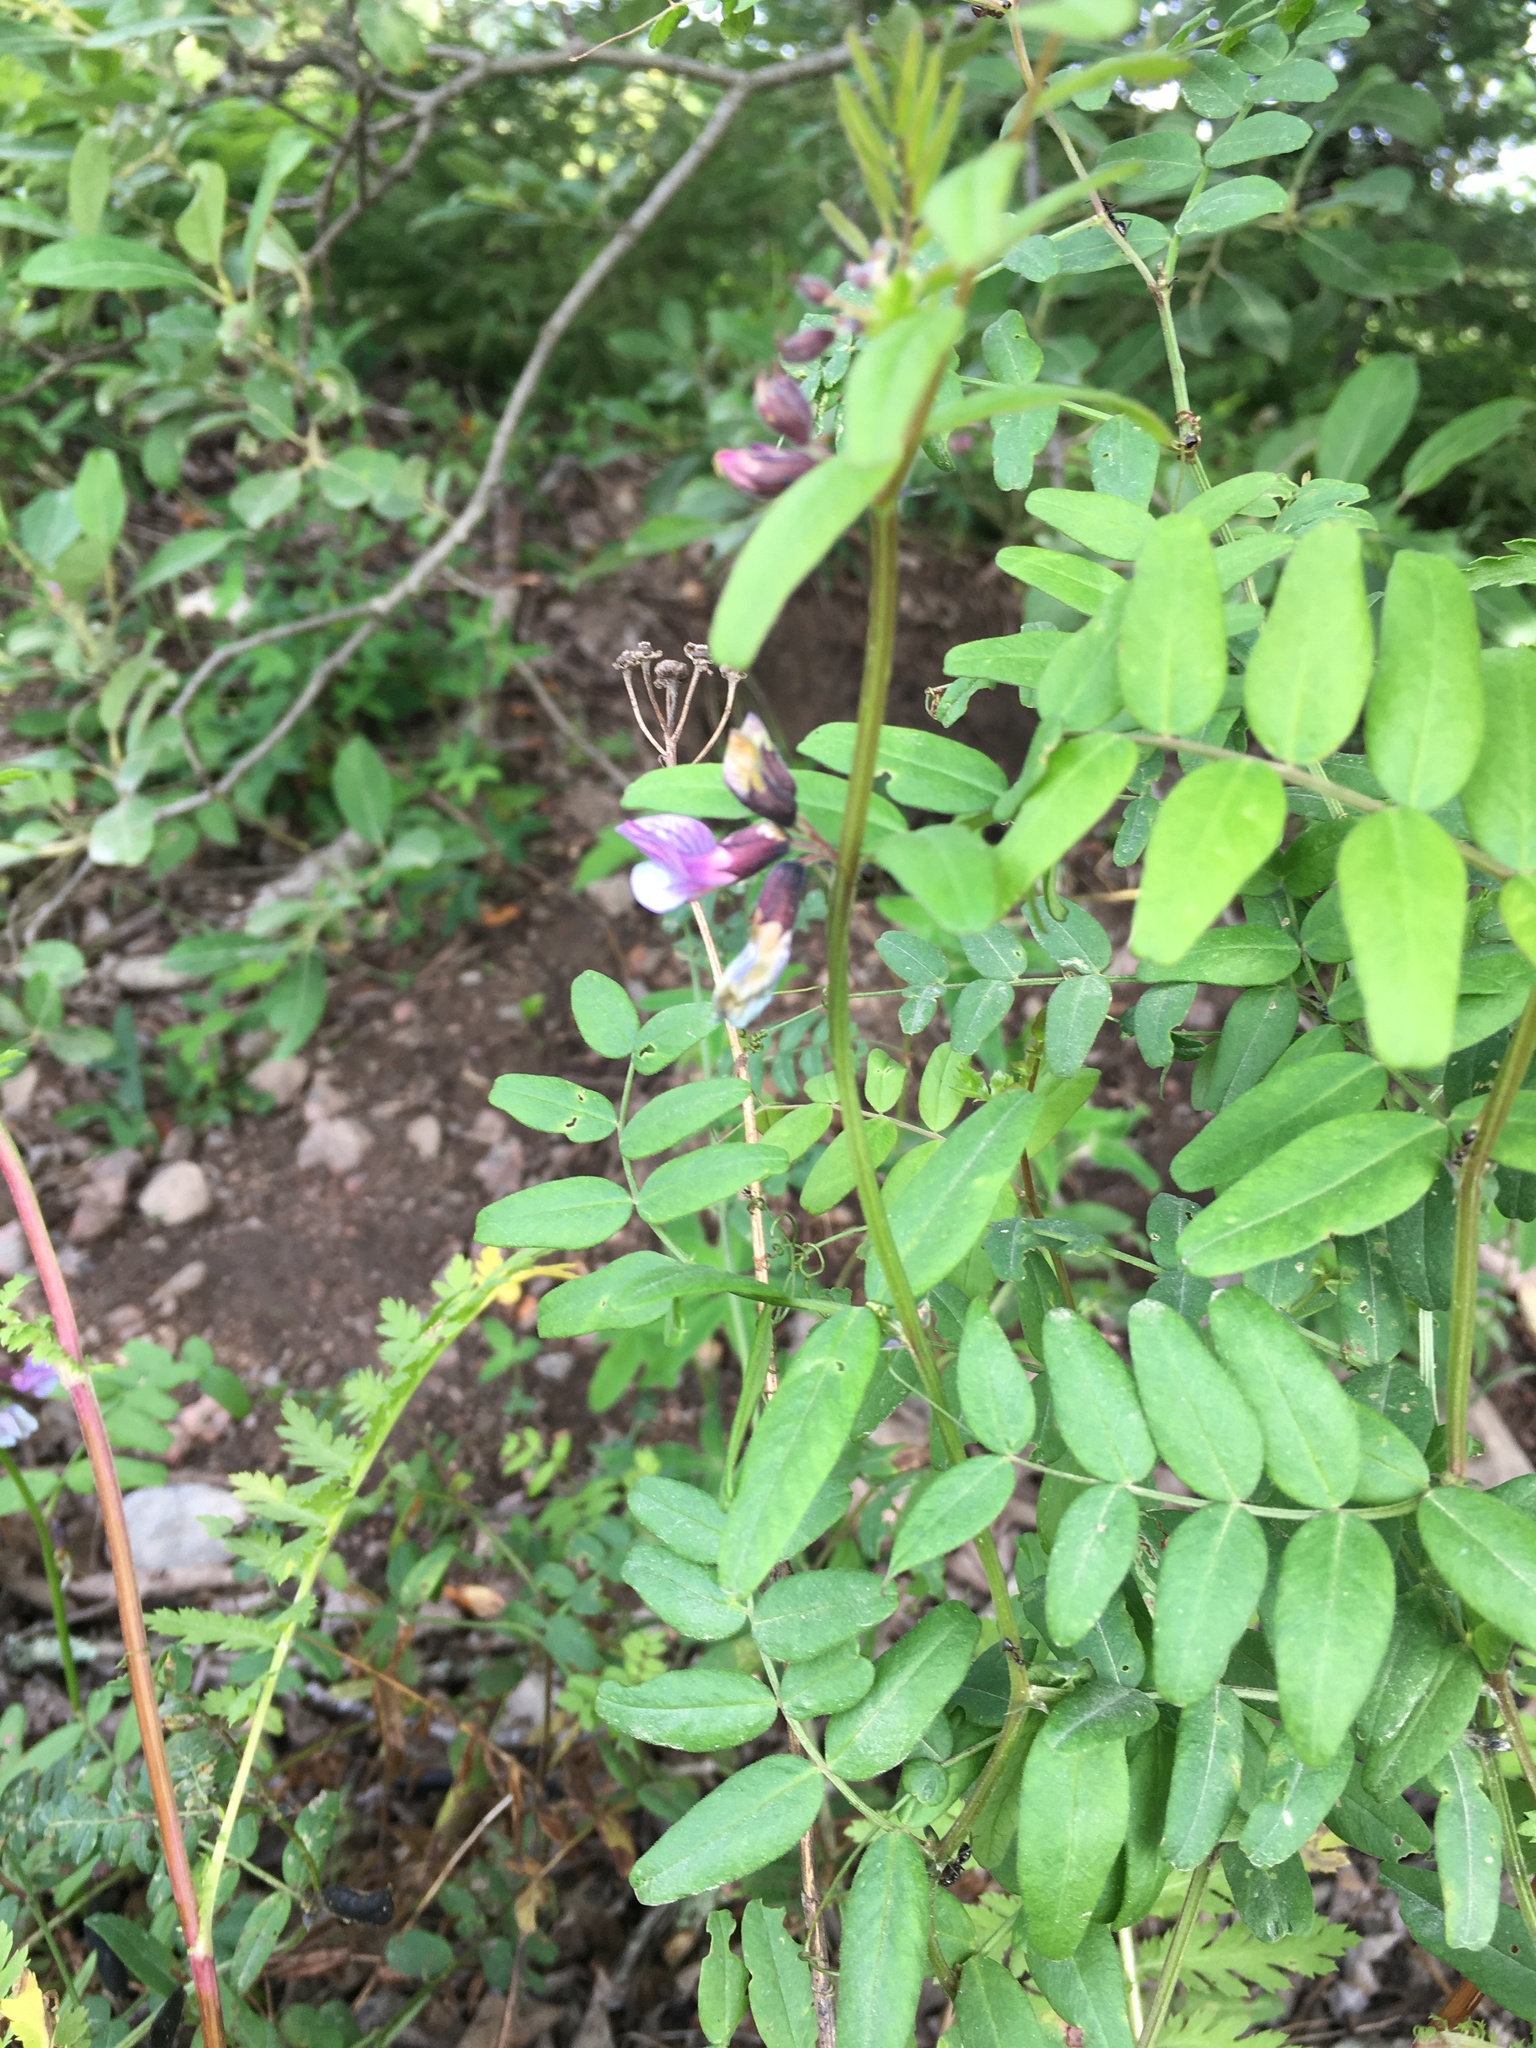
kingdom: Plantae
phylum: Tracheophyta
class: Magnoliopsida
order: Fabales
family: Fabaceae
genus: Vicia
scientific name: Vicia sepium
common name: Bush vetch
